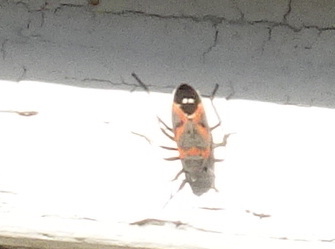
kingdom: Animalia
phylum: Arthropoda
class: Insecta
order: Hemiptera
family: Lygaeidae
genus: Lygaeus
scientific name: Lygaeus kalmii
